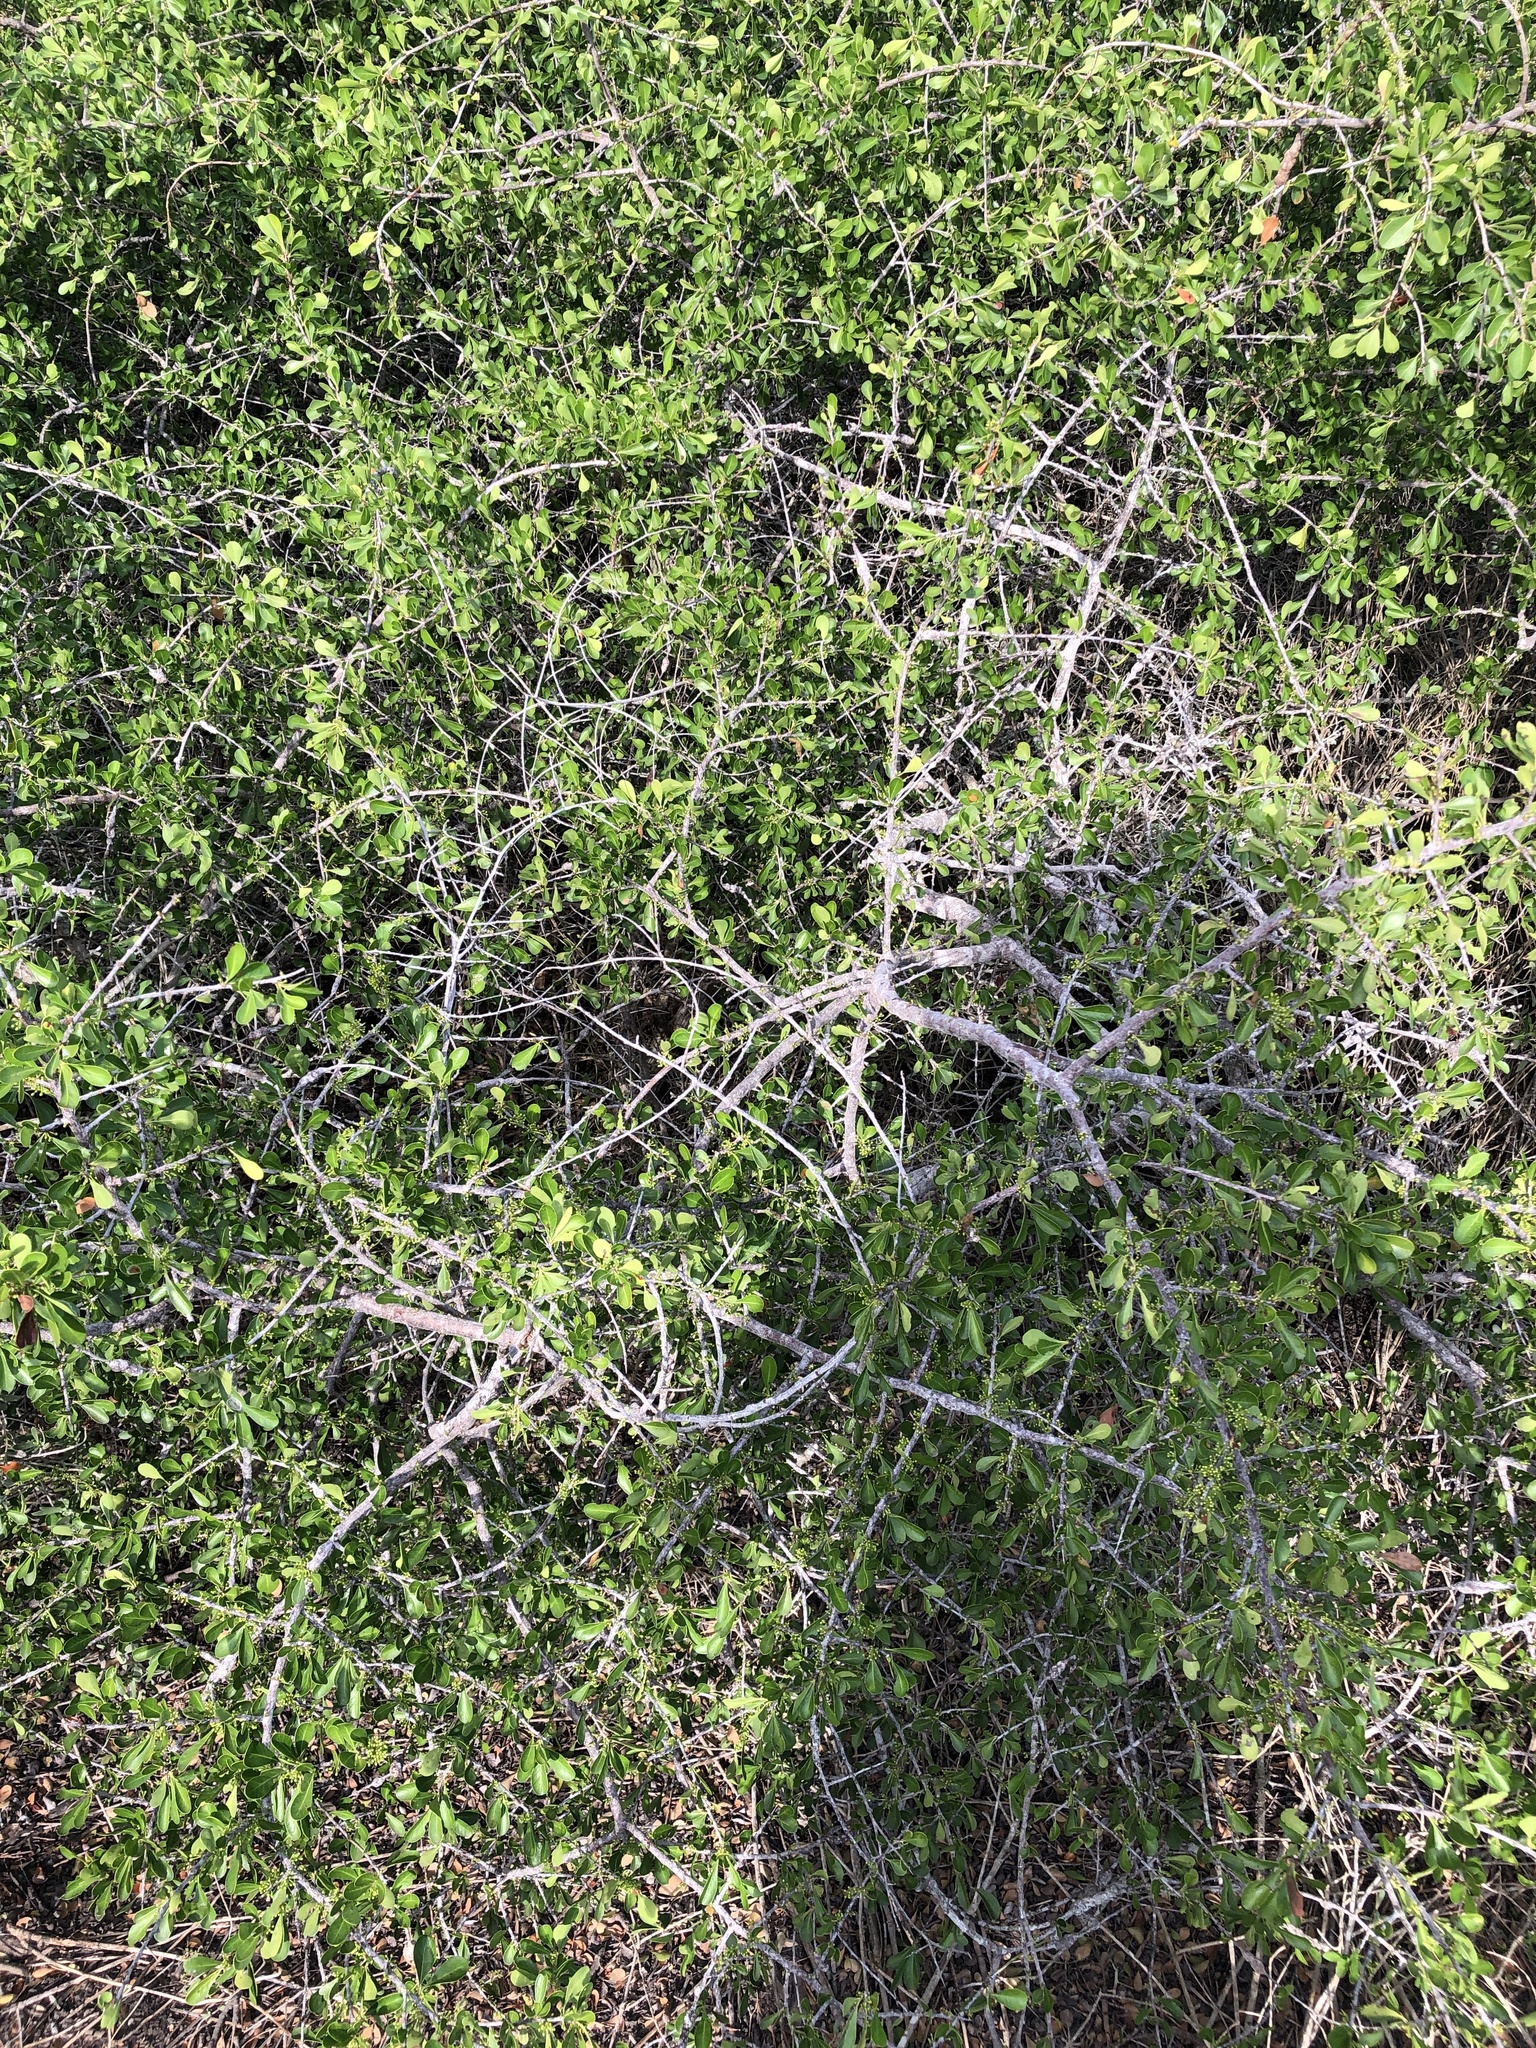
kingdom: Plantae
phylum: Tracheophyta
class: Magnoliopsida
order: Ericales
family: Sapotaceae
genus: Sideroxylon
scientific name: Sideroxylon celastrinum
